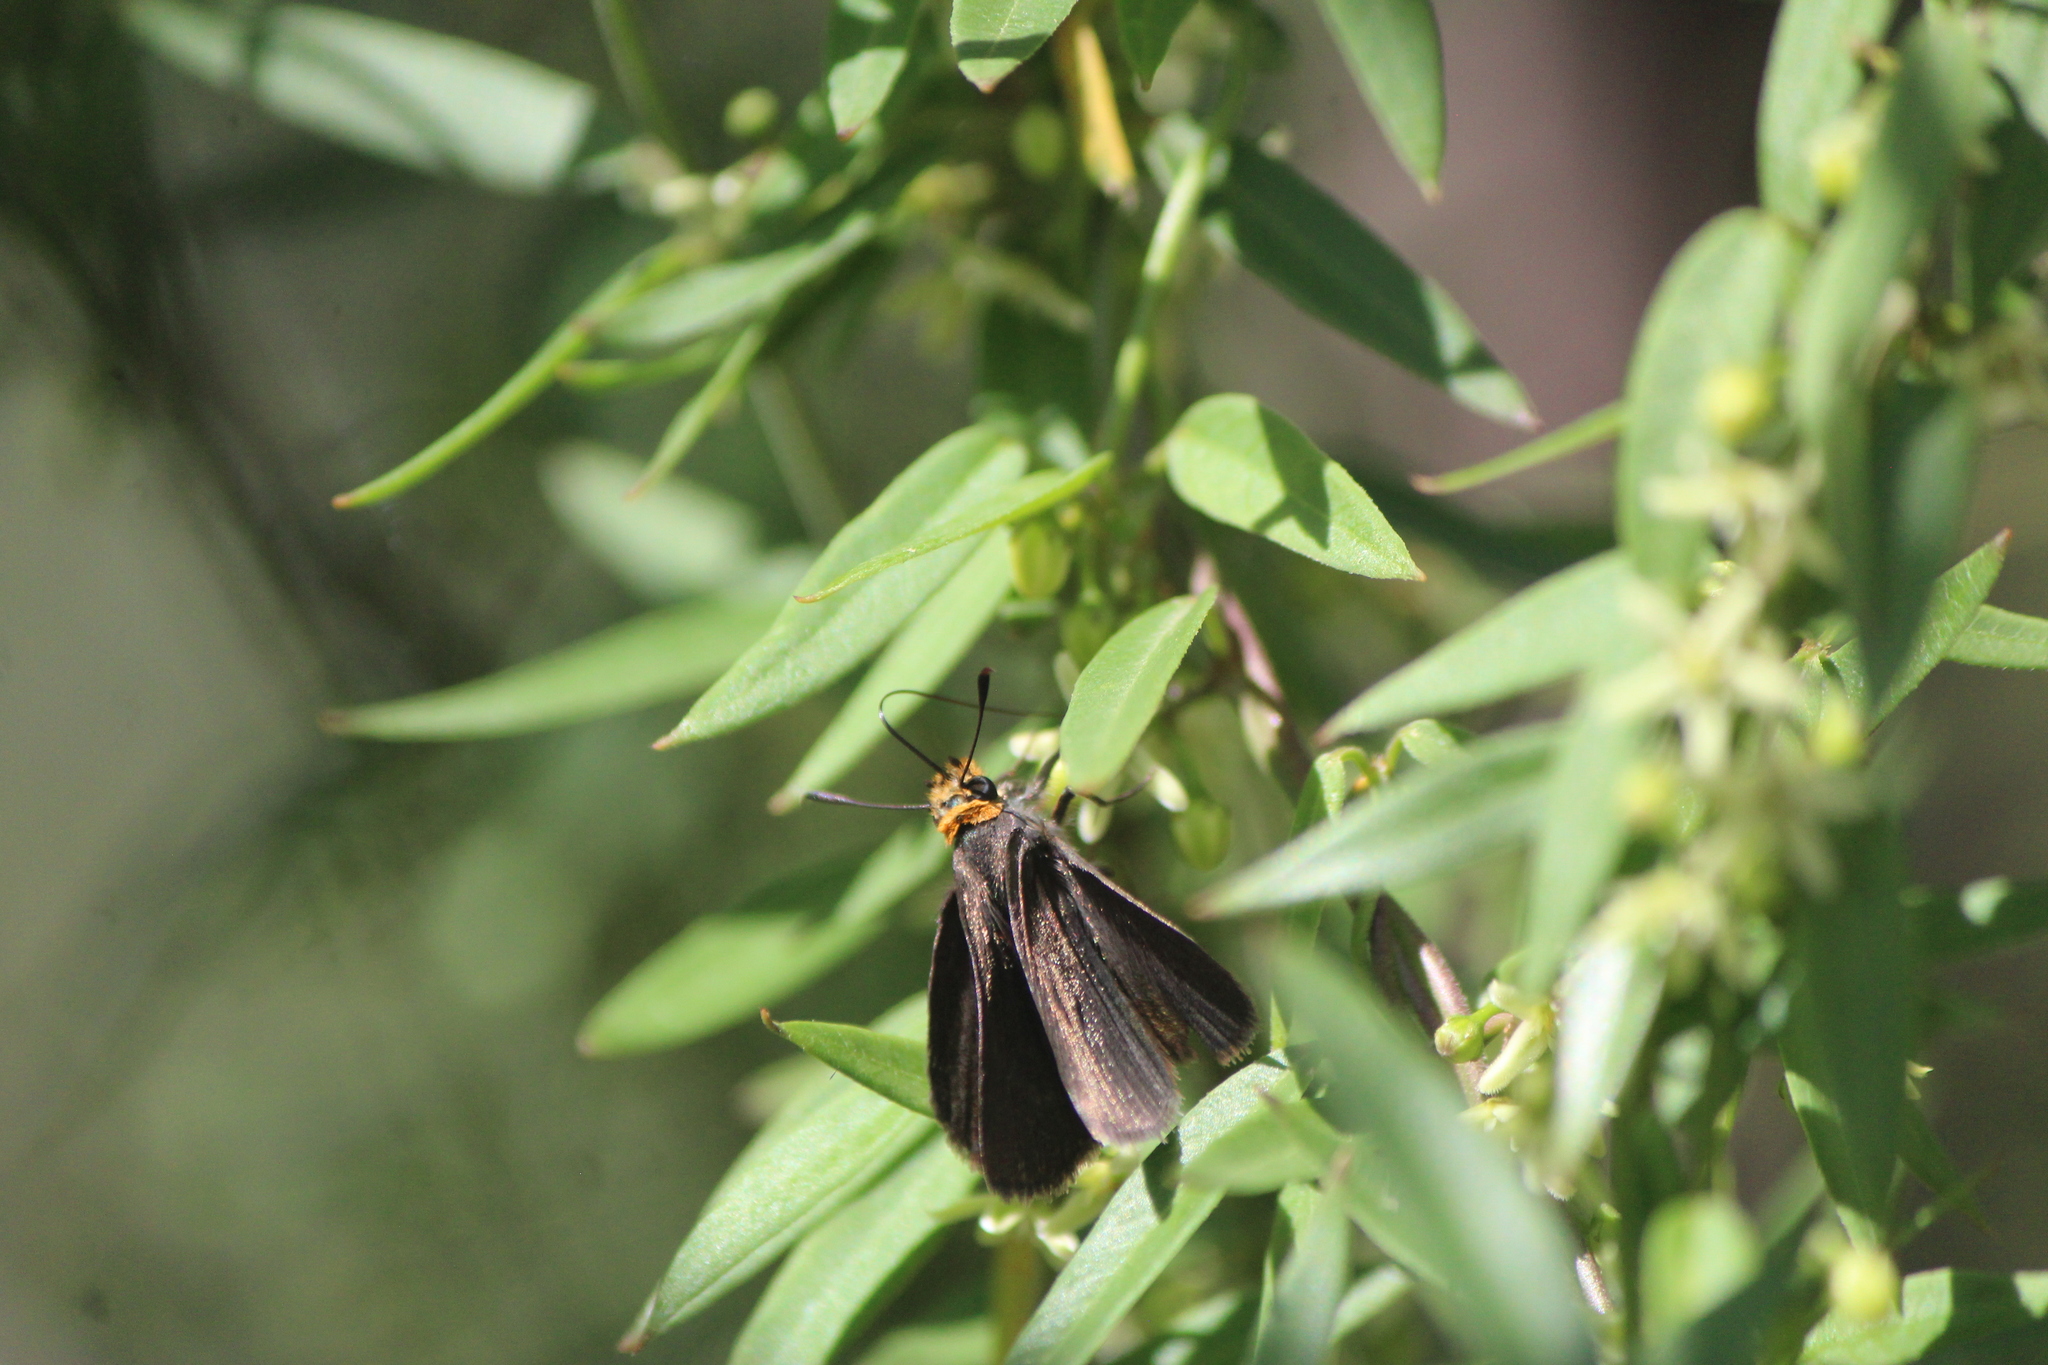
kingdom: Animalia
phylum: Arthropoda
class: Insecta
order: Lepidoptera
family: Hesperiidae
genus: Mastor
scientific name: Mastor phylace
